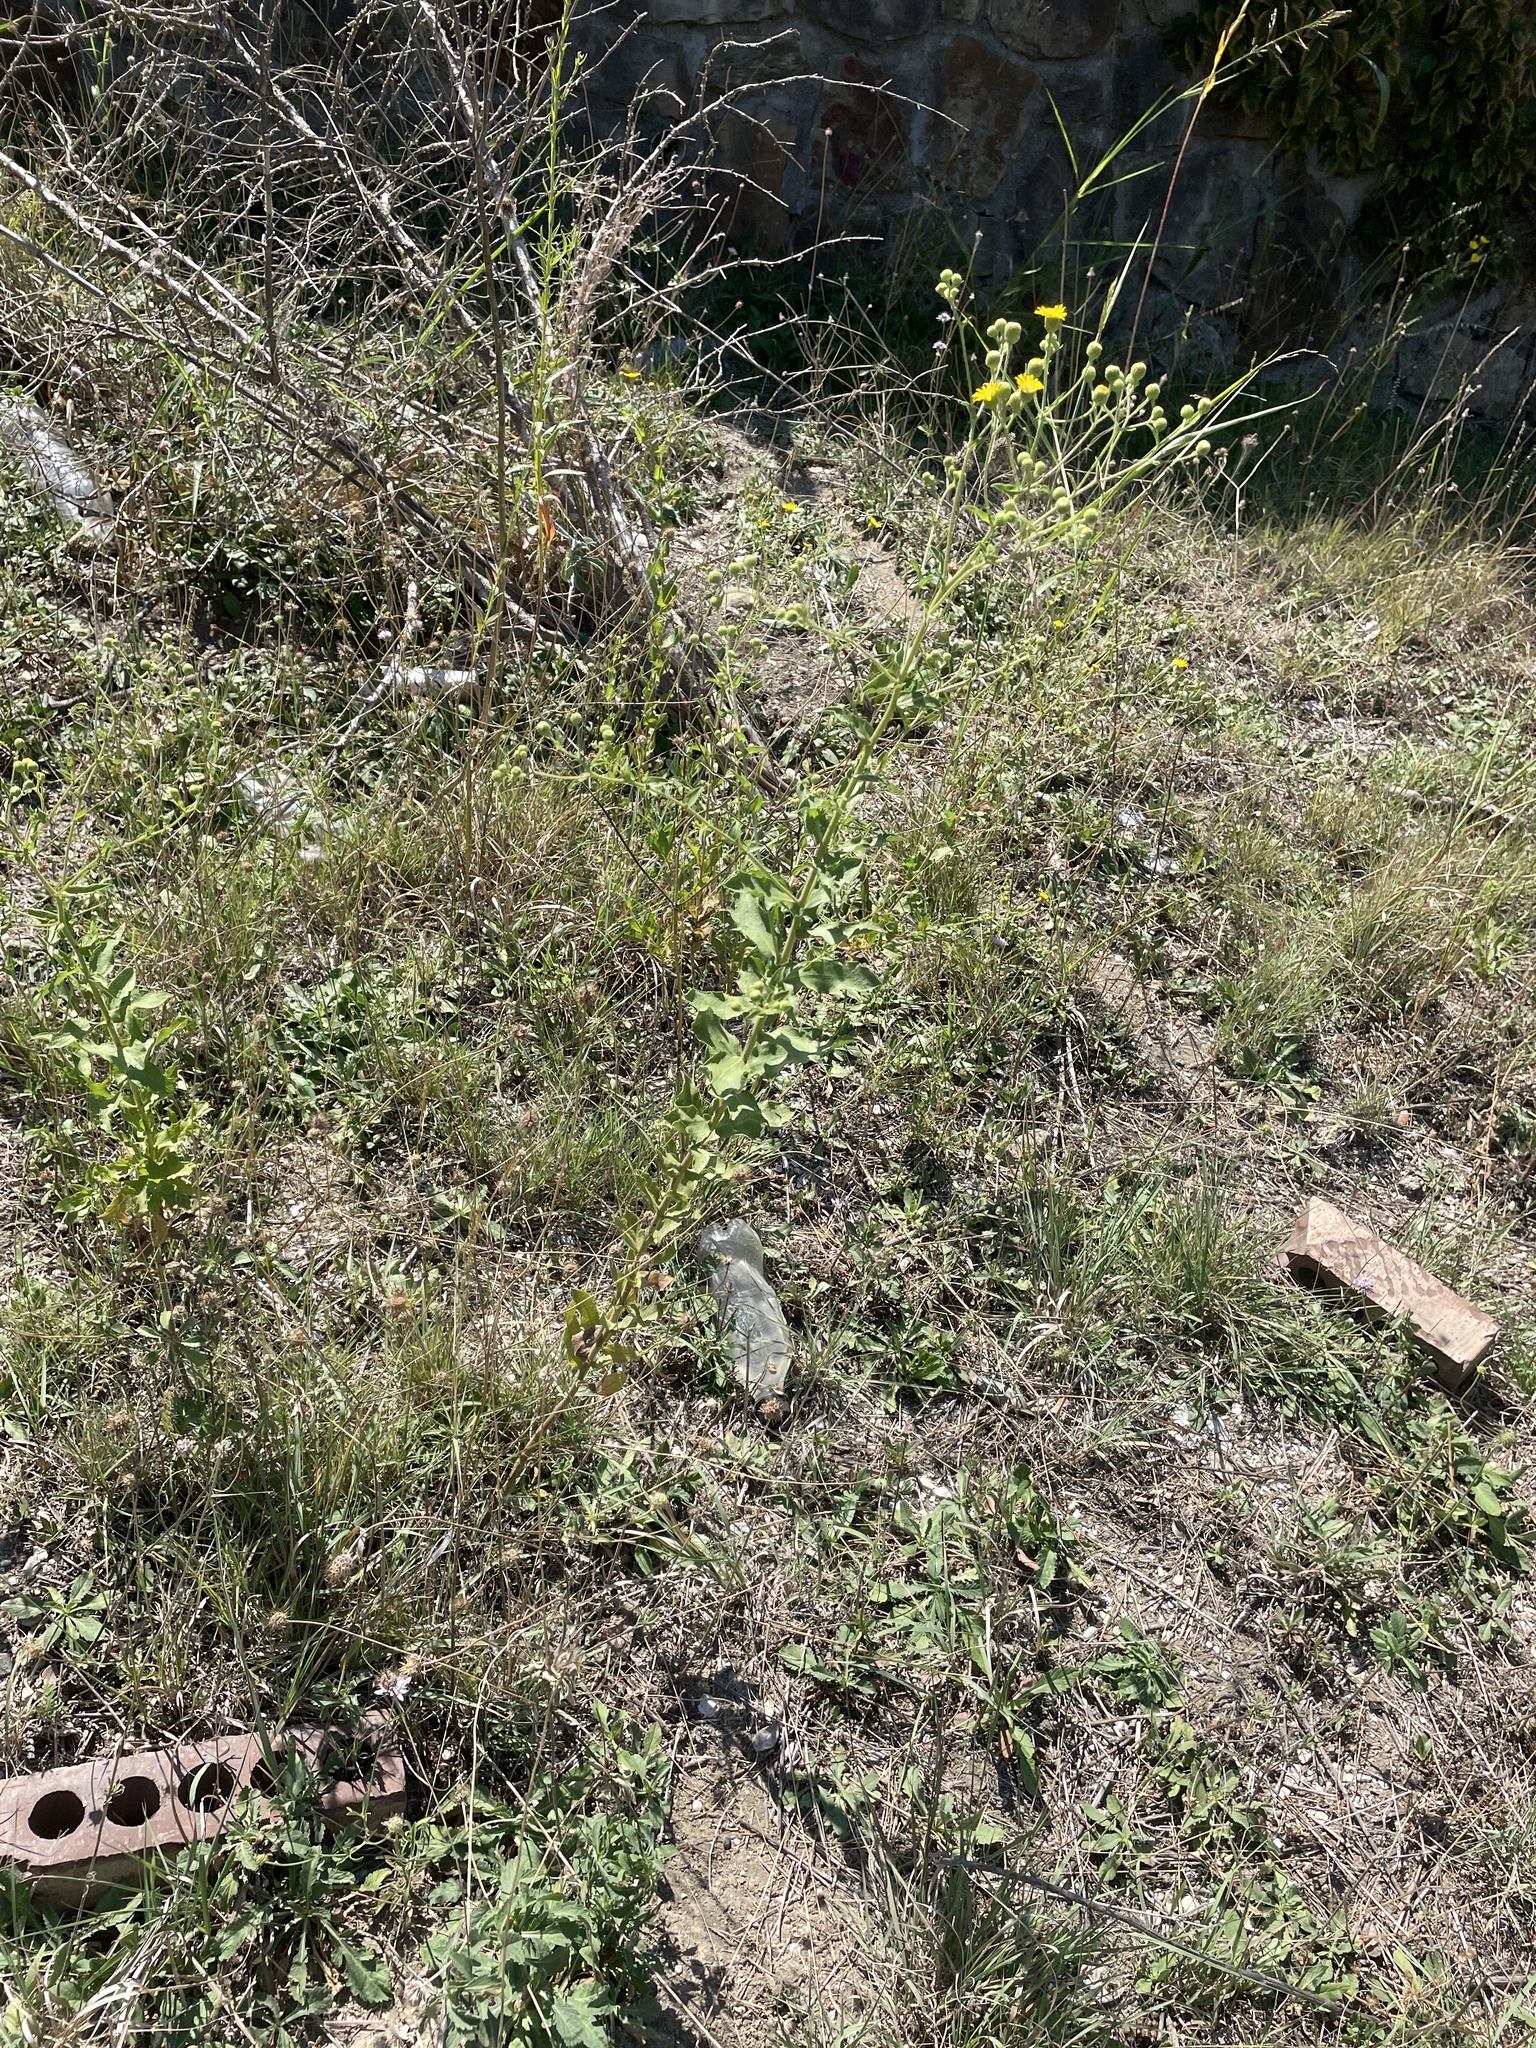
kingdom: Plantae
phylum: Tracheophyta
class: Magnoliopsida
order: Asterales
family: Asteraceae
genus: Heterotheca
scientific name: Heterotheca subaxillaris
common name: Camphorweed
